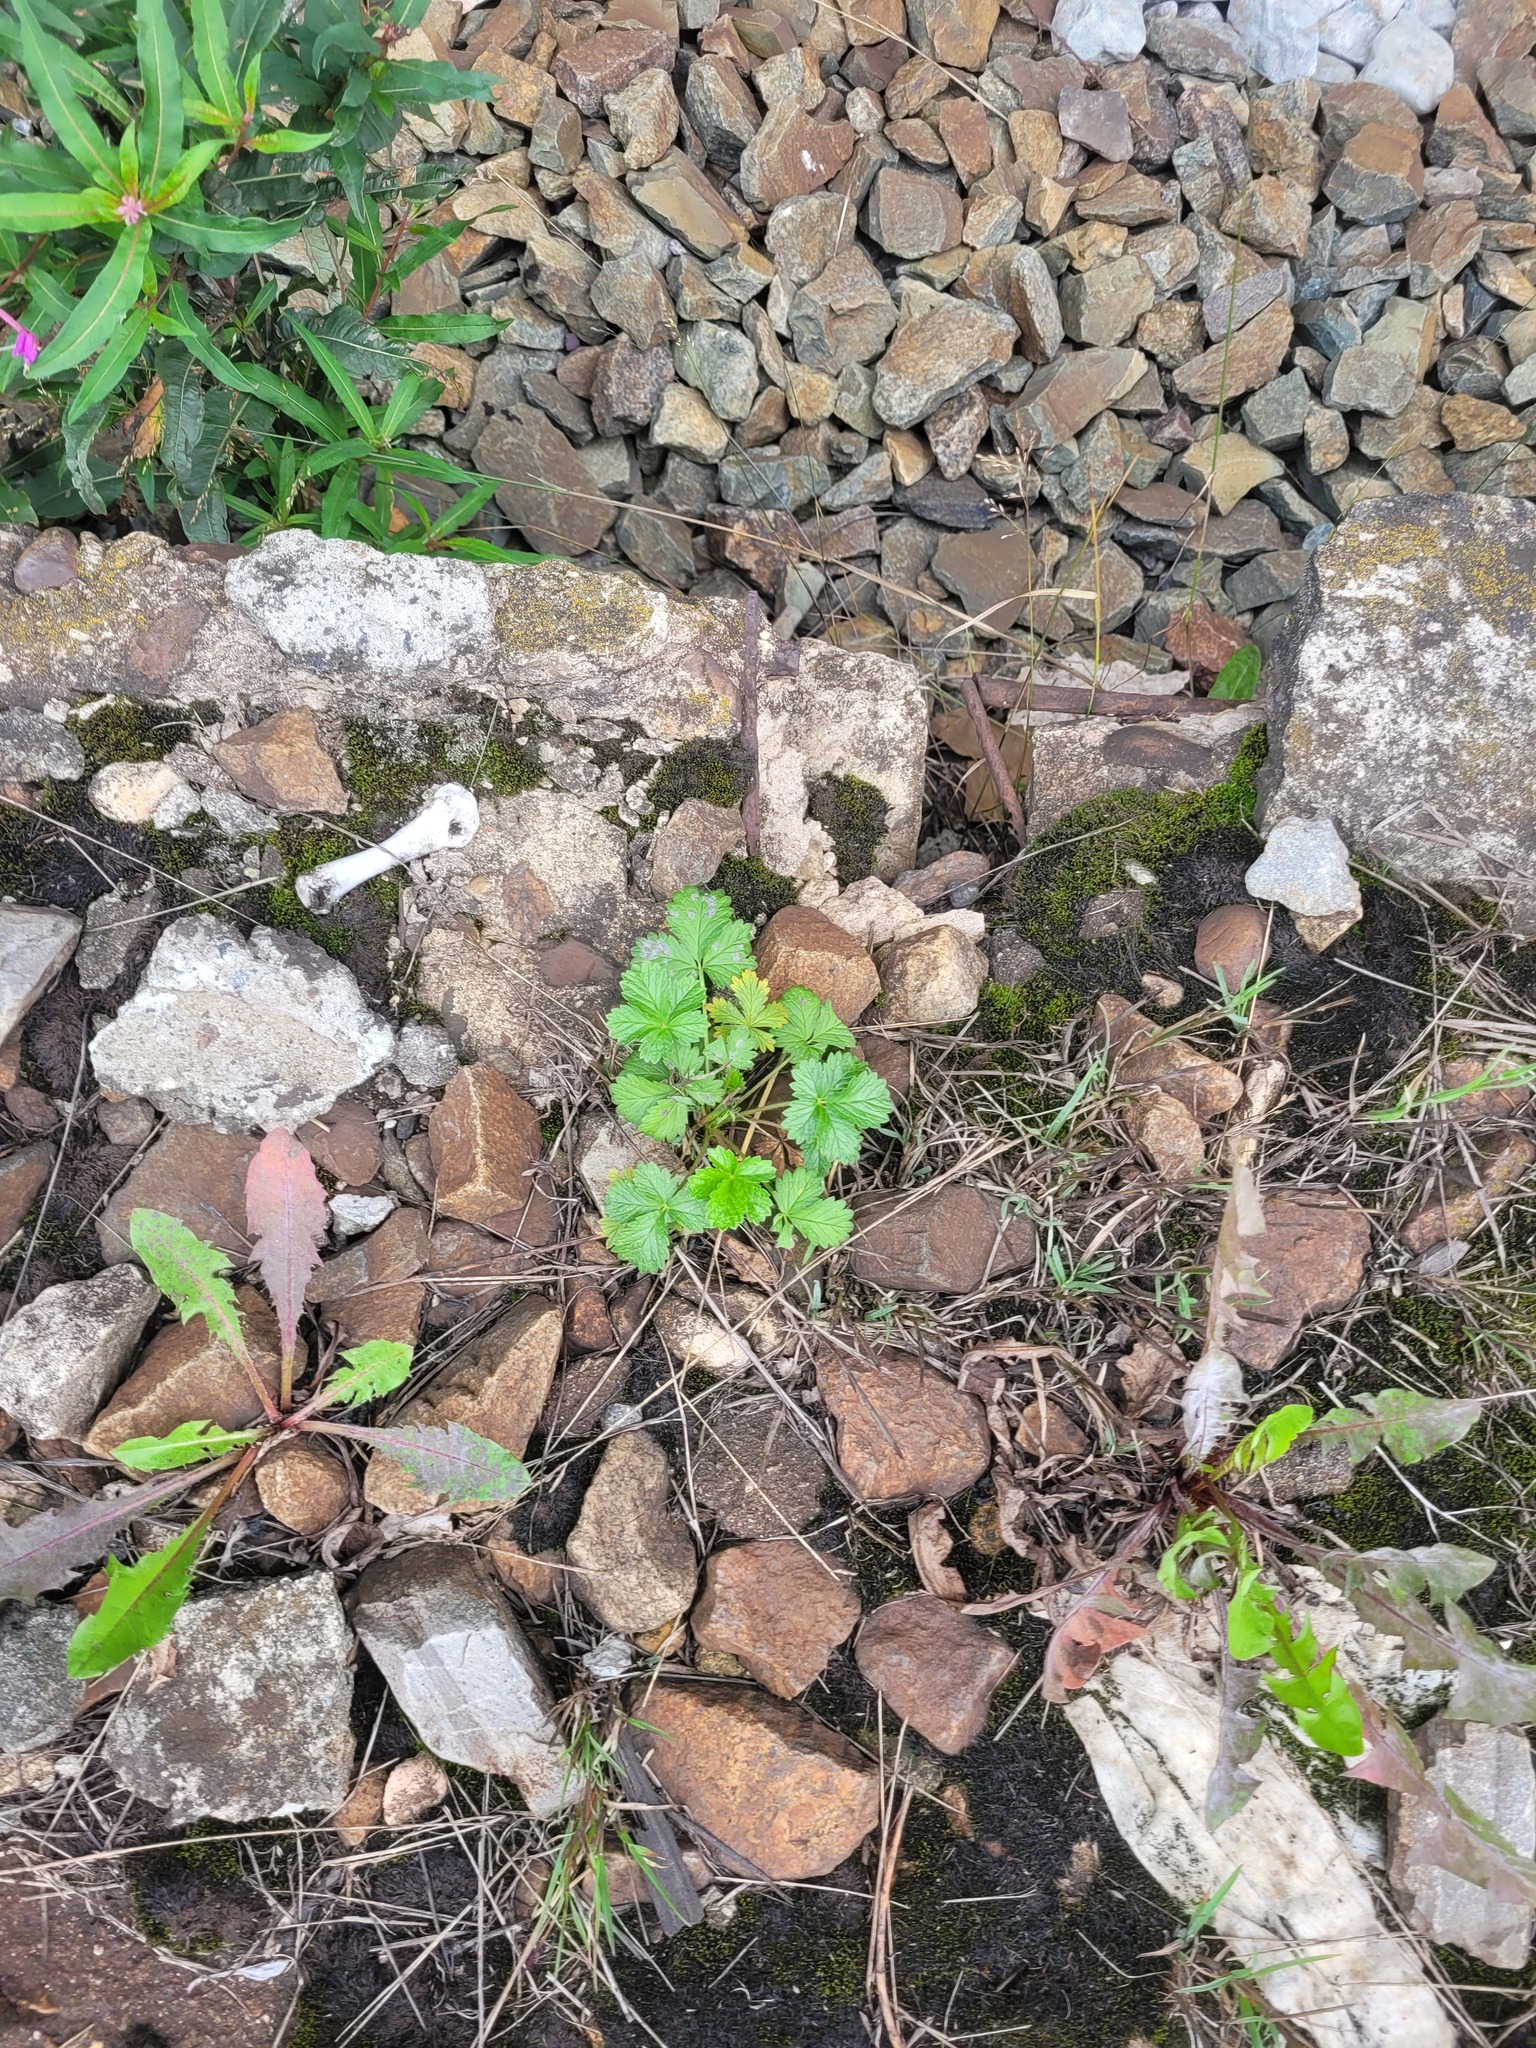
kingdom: Plantae
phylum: Tracheophyta
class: Magnoliopsida
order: Rosales
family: Rosaceae
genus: Potentilla
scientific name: Potentilla intermedia
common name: Downy cinquefoil
